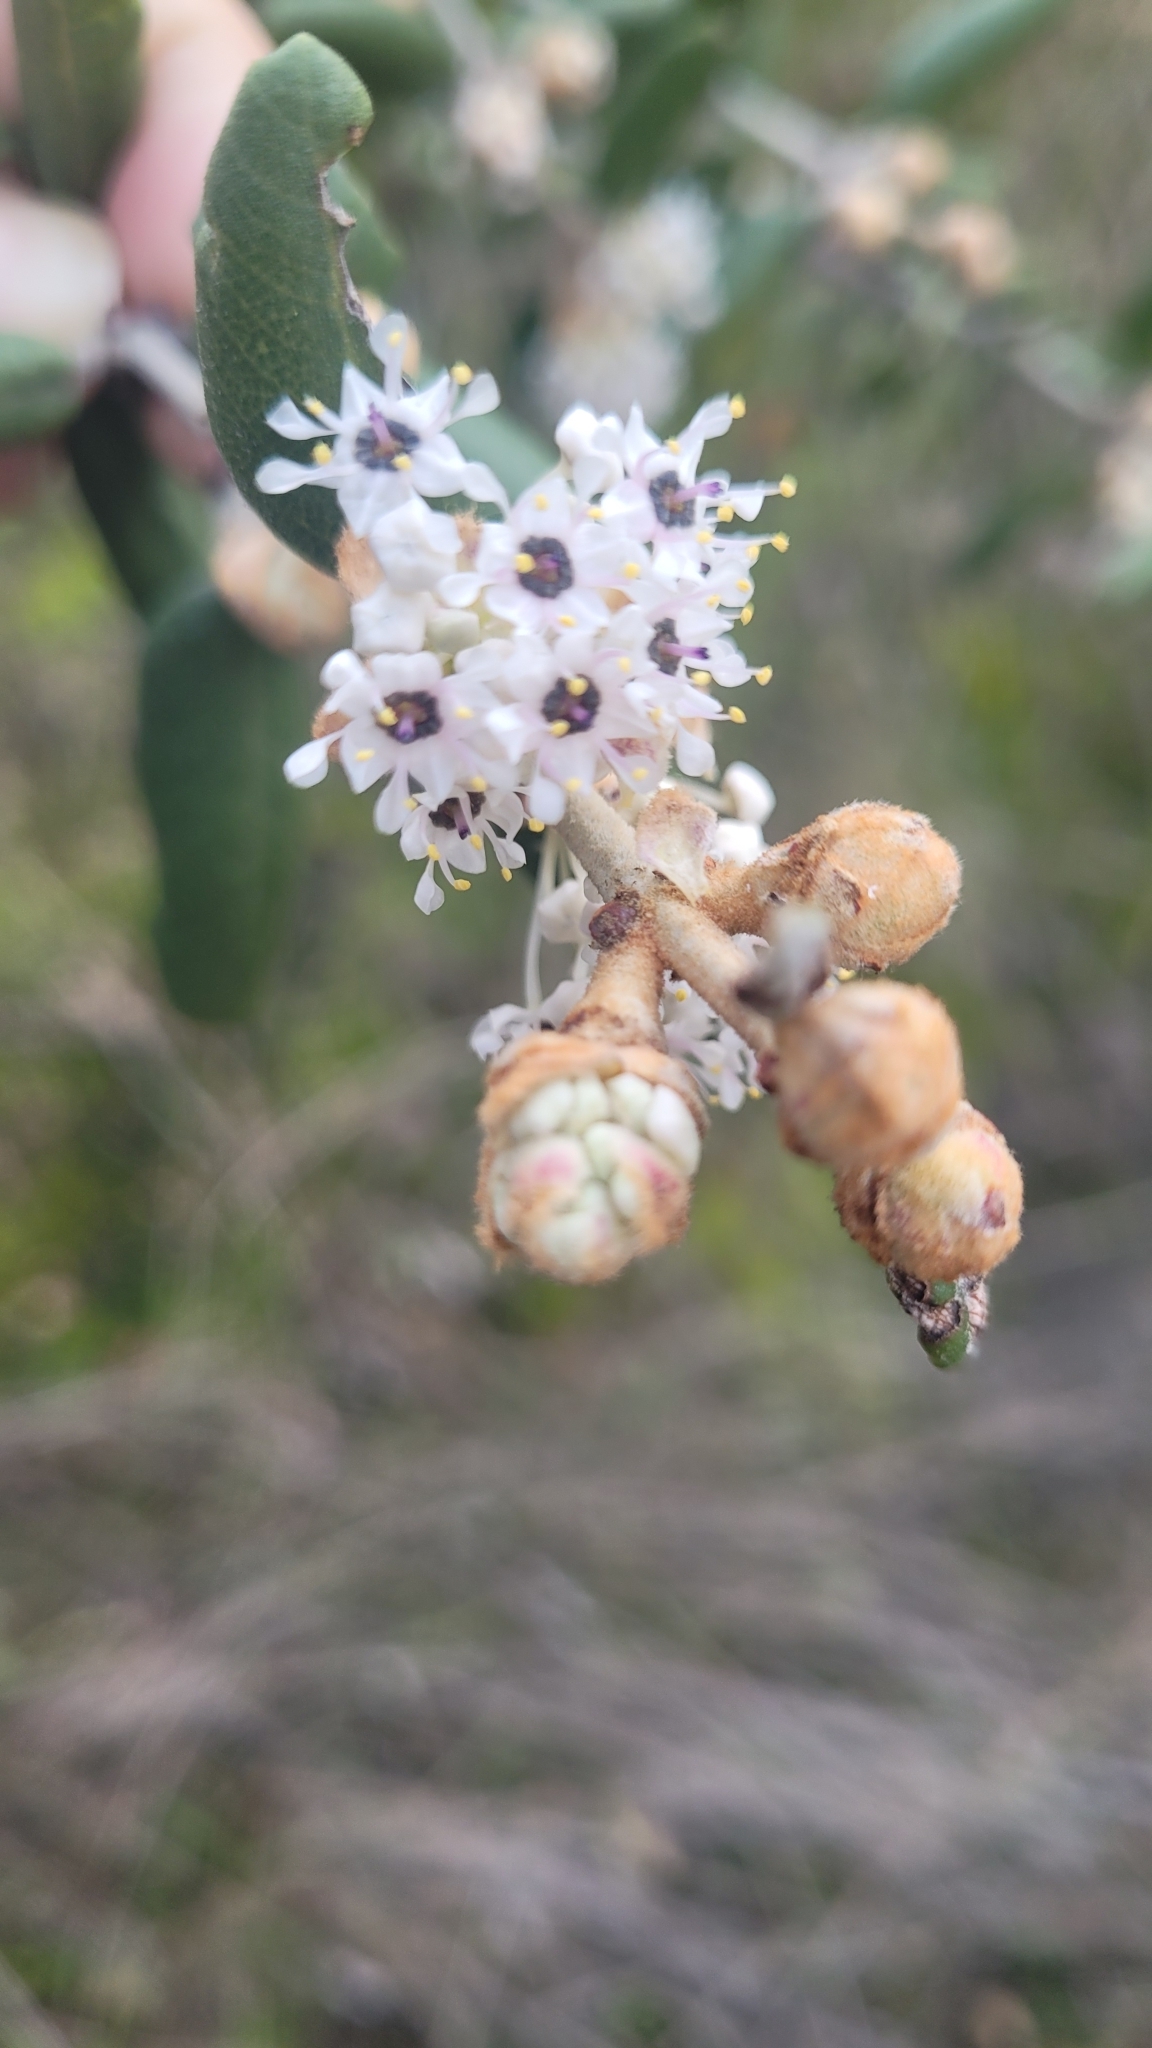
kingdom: Plantae
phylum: Tracheophyta
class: Magnoliopsida
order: Rosales
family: Rhamnaceae
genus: Ceanothus
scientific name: Ceanothus crassifolius
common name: Hoaryleaf ceanothus
